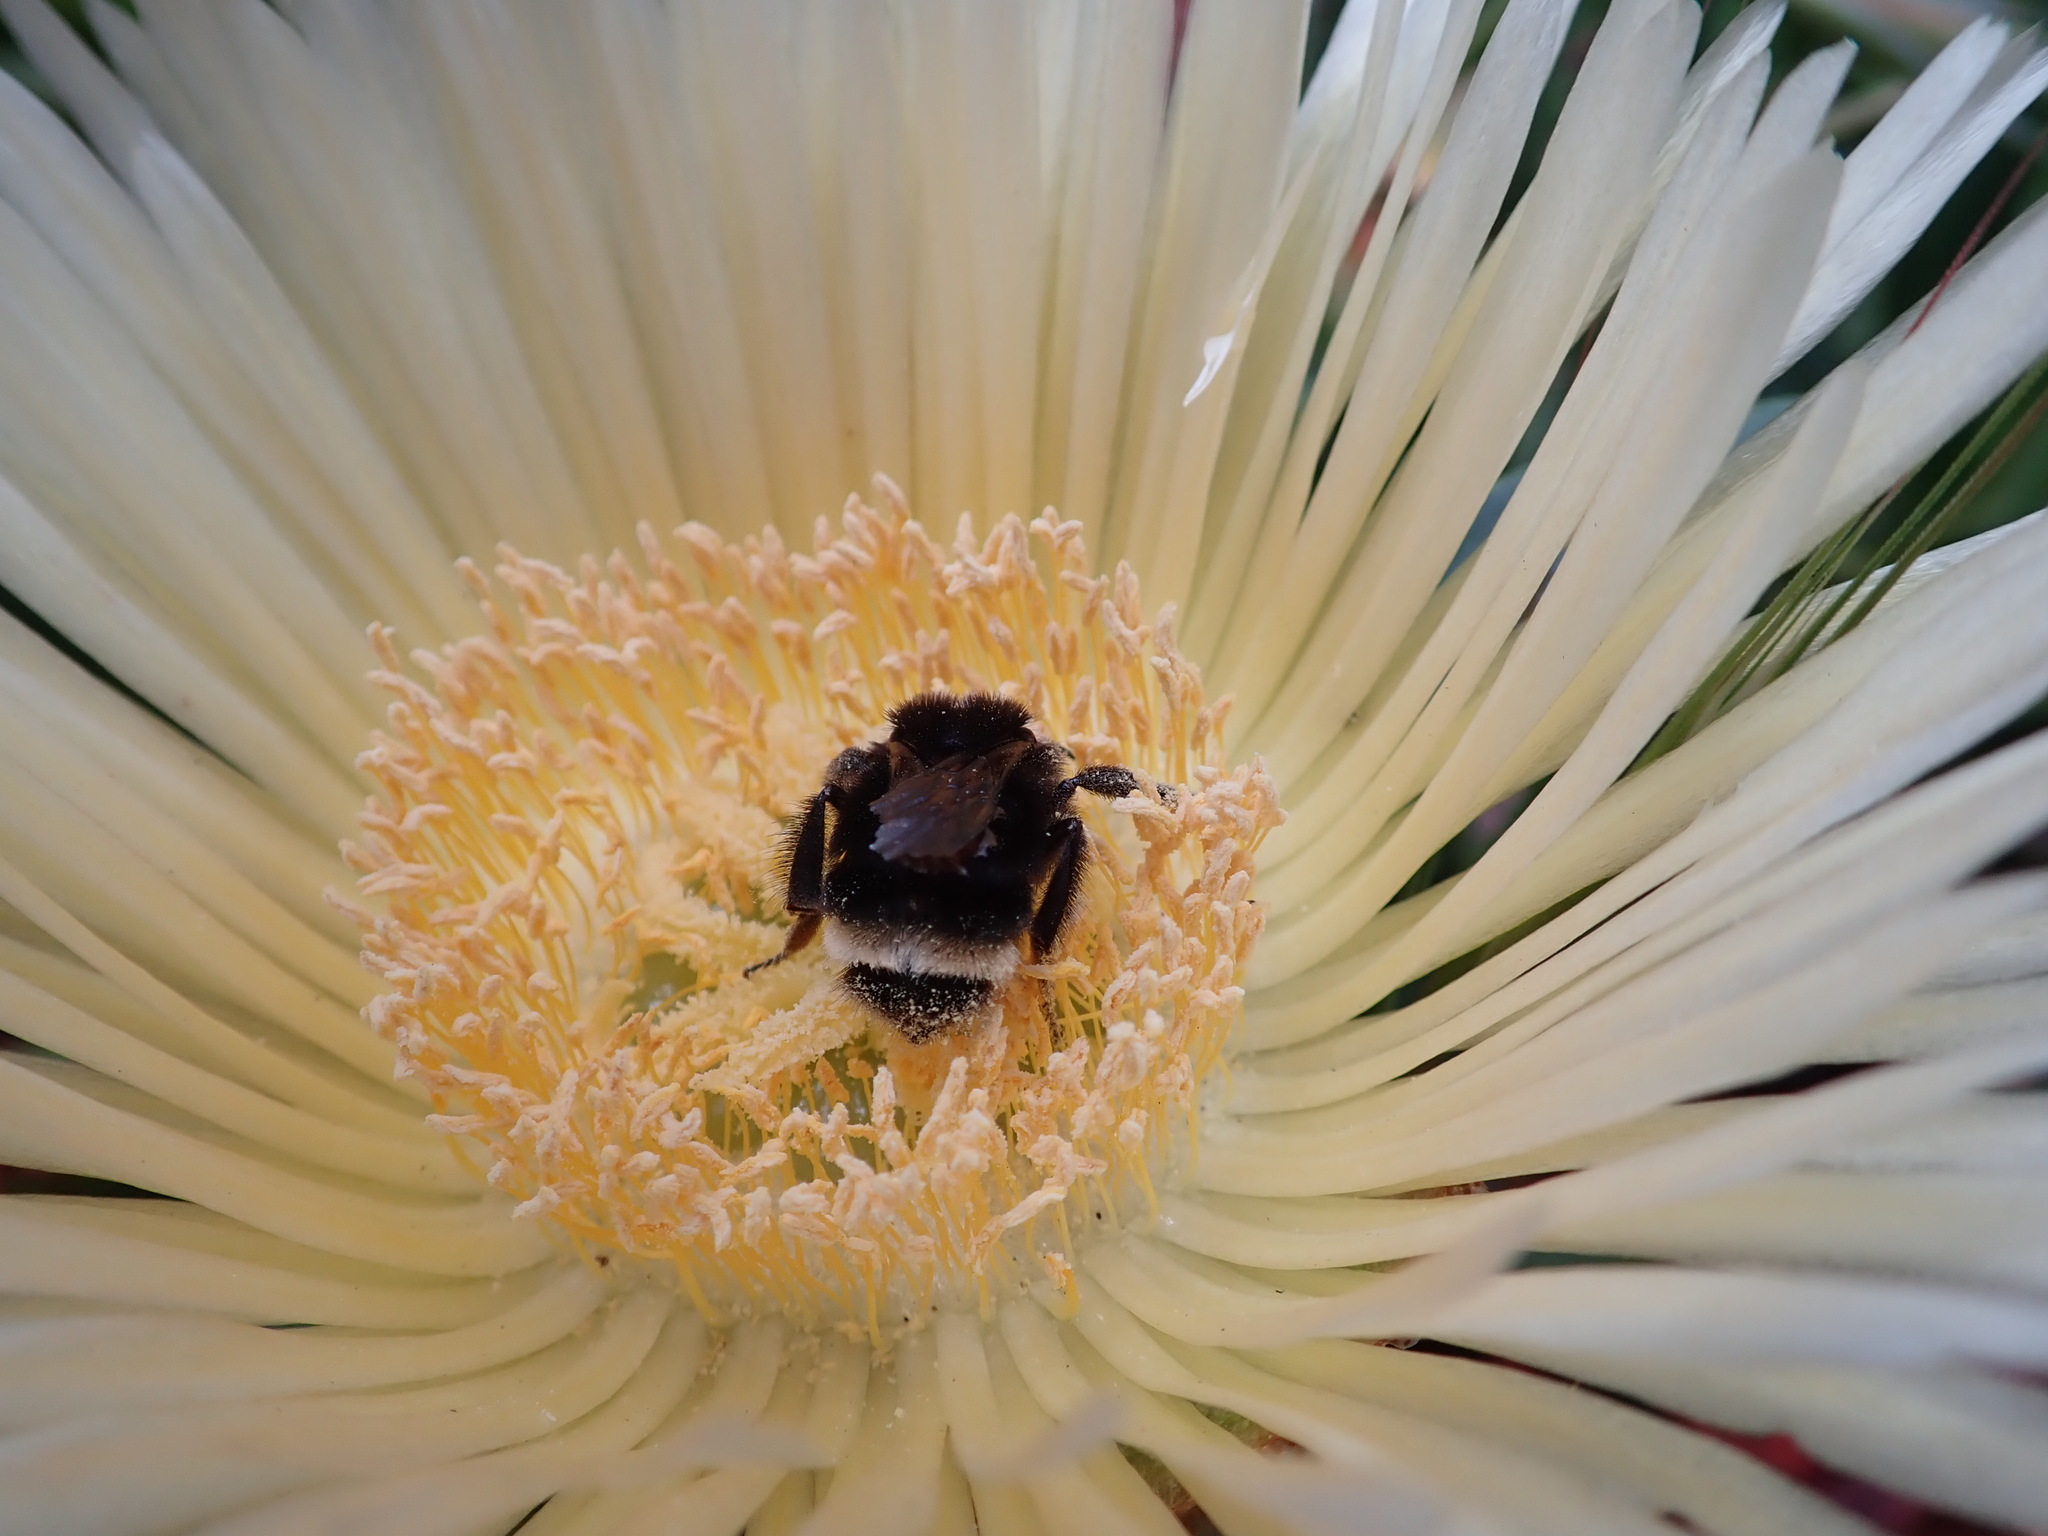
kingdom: Animalia
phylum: Arthropoda
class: Insecta
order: Hymenoptera
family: Apidae
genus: Bombus
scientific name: Bombus vosnesenskii
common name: Vosnesensky bumble bee
